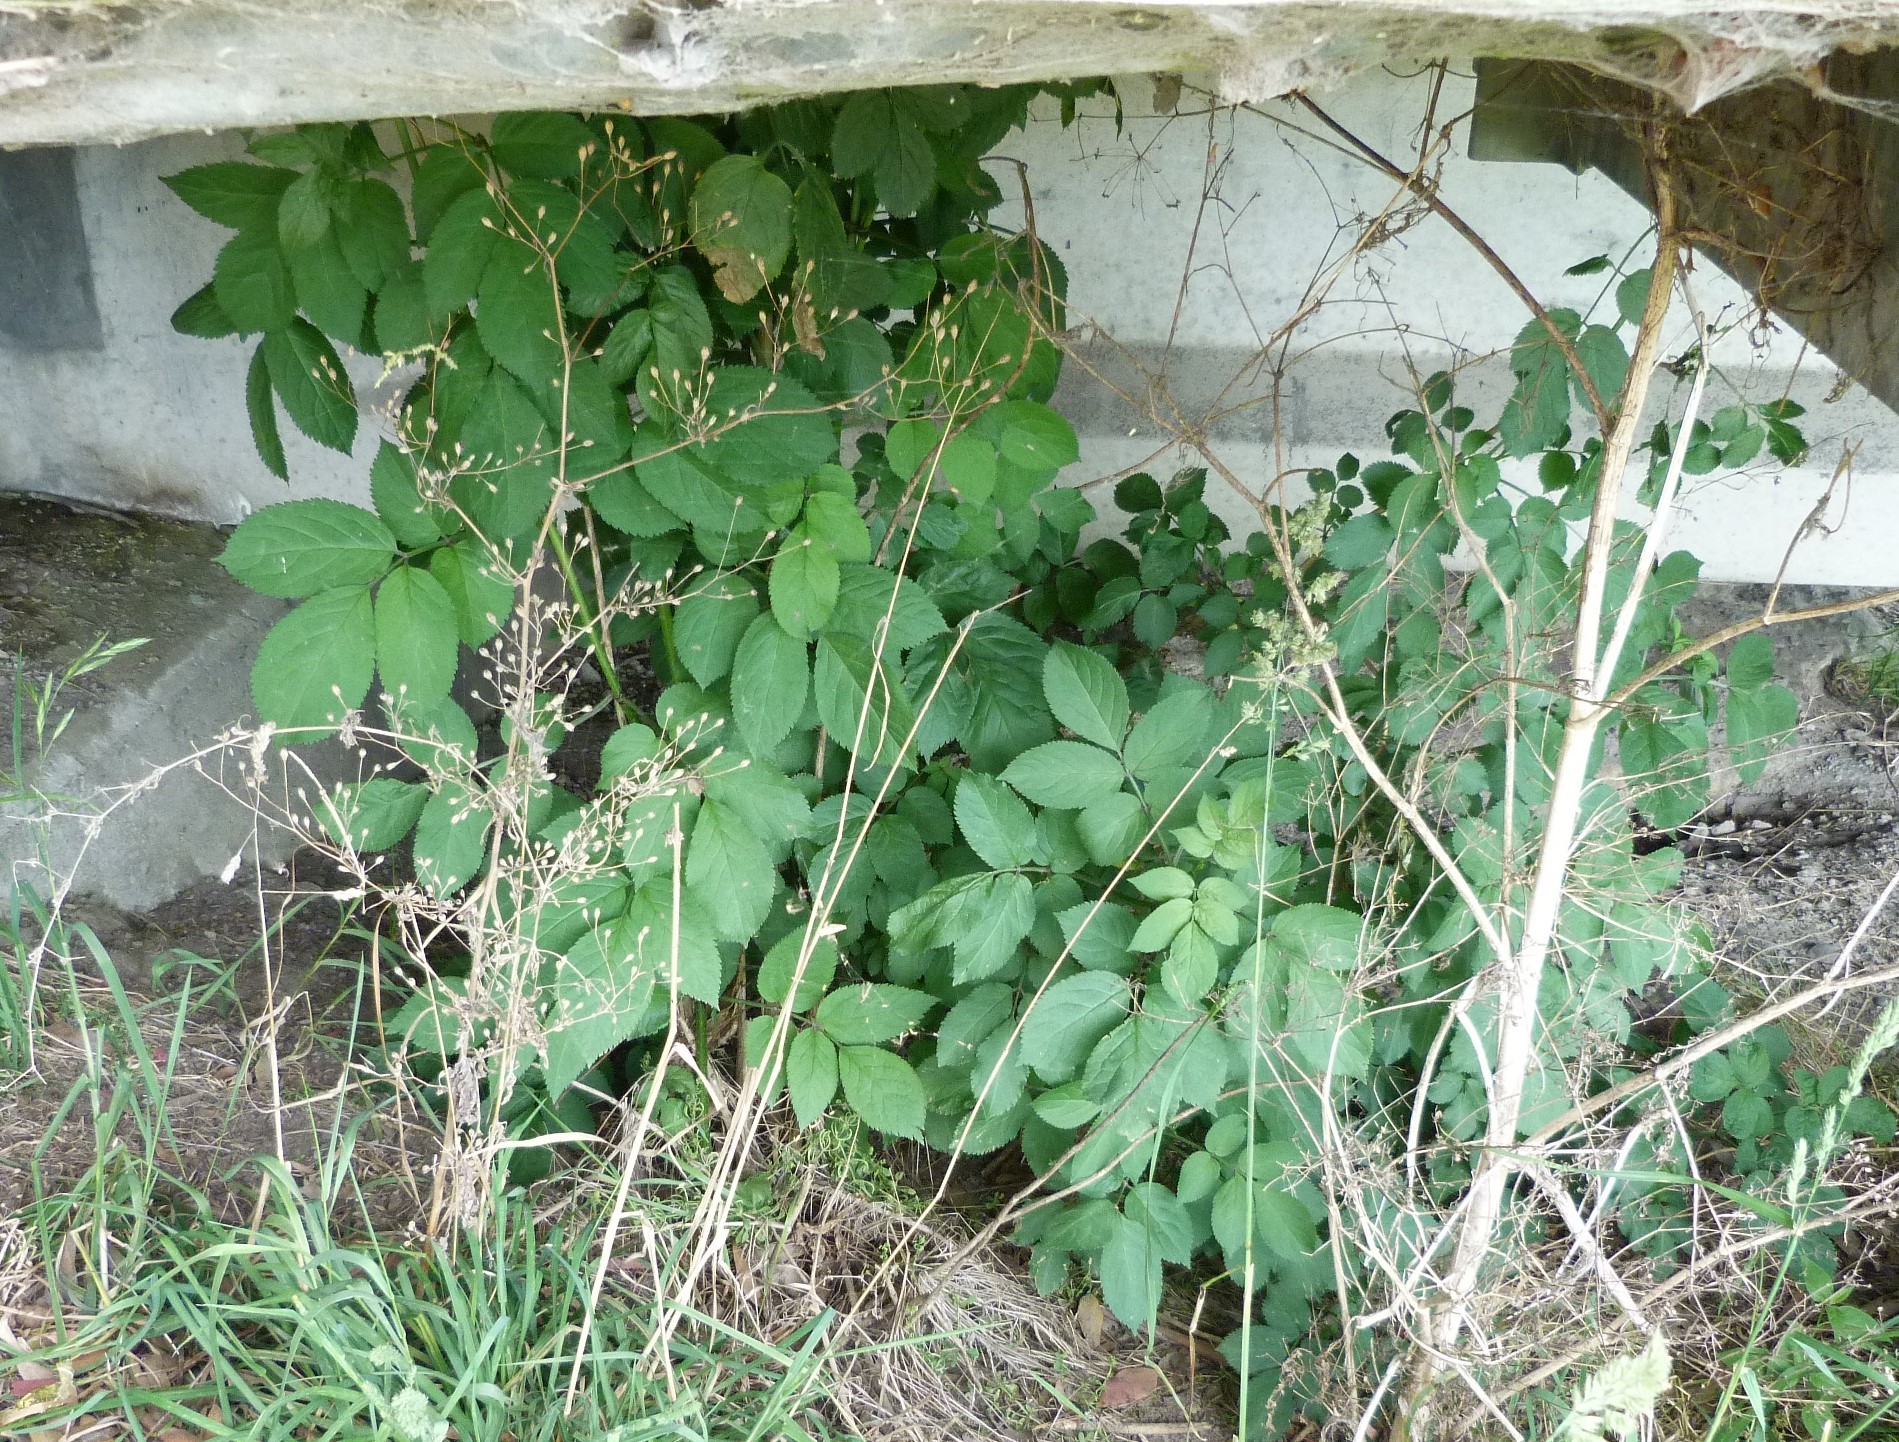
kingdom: Plantae
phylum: Tracheophyta
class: Magnoliopsida
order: Dipsacales
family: Viburnaceae
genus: Sambucus
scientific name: Sambucus nigra
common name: Elder
